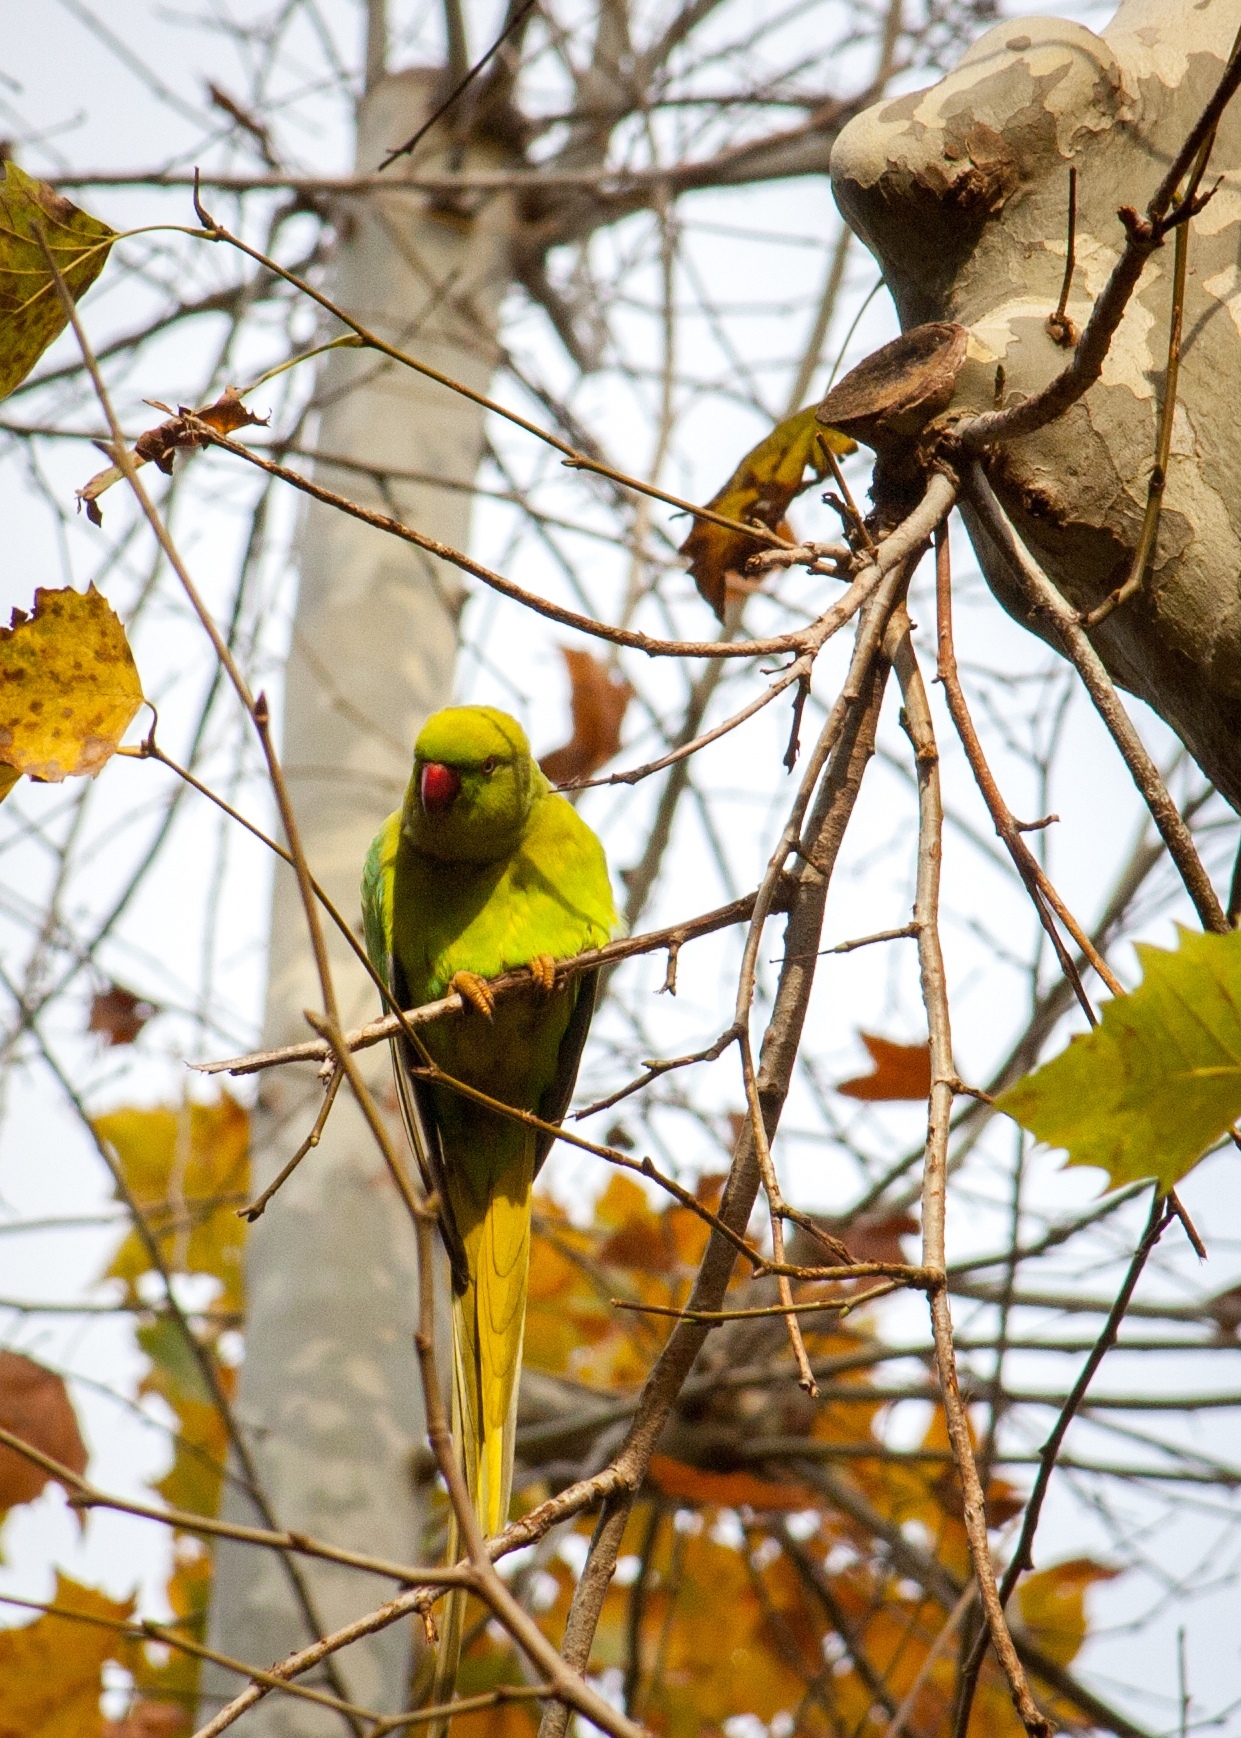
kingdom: Animalia
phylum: Chordata
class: Aves
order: Psittaciformes
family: Psittacidae
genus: Psittacula
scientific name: Psittacula krameri
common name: Rose-ringed parakeet
